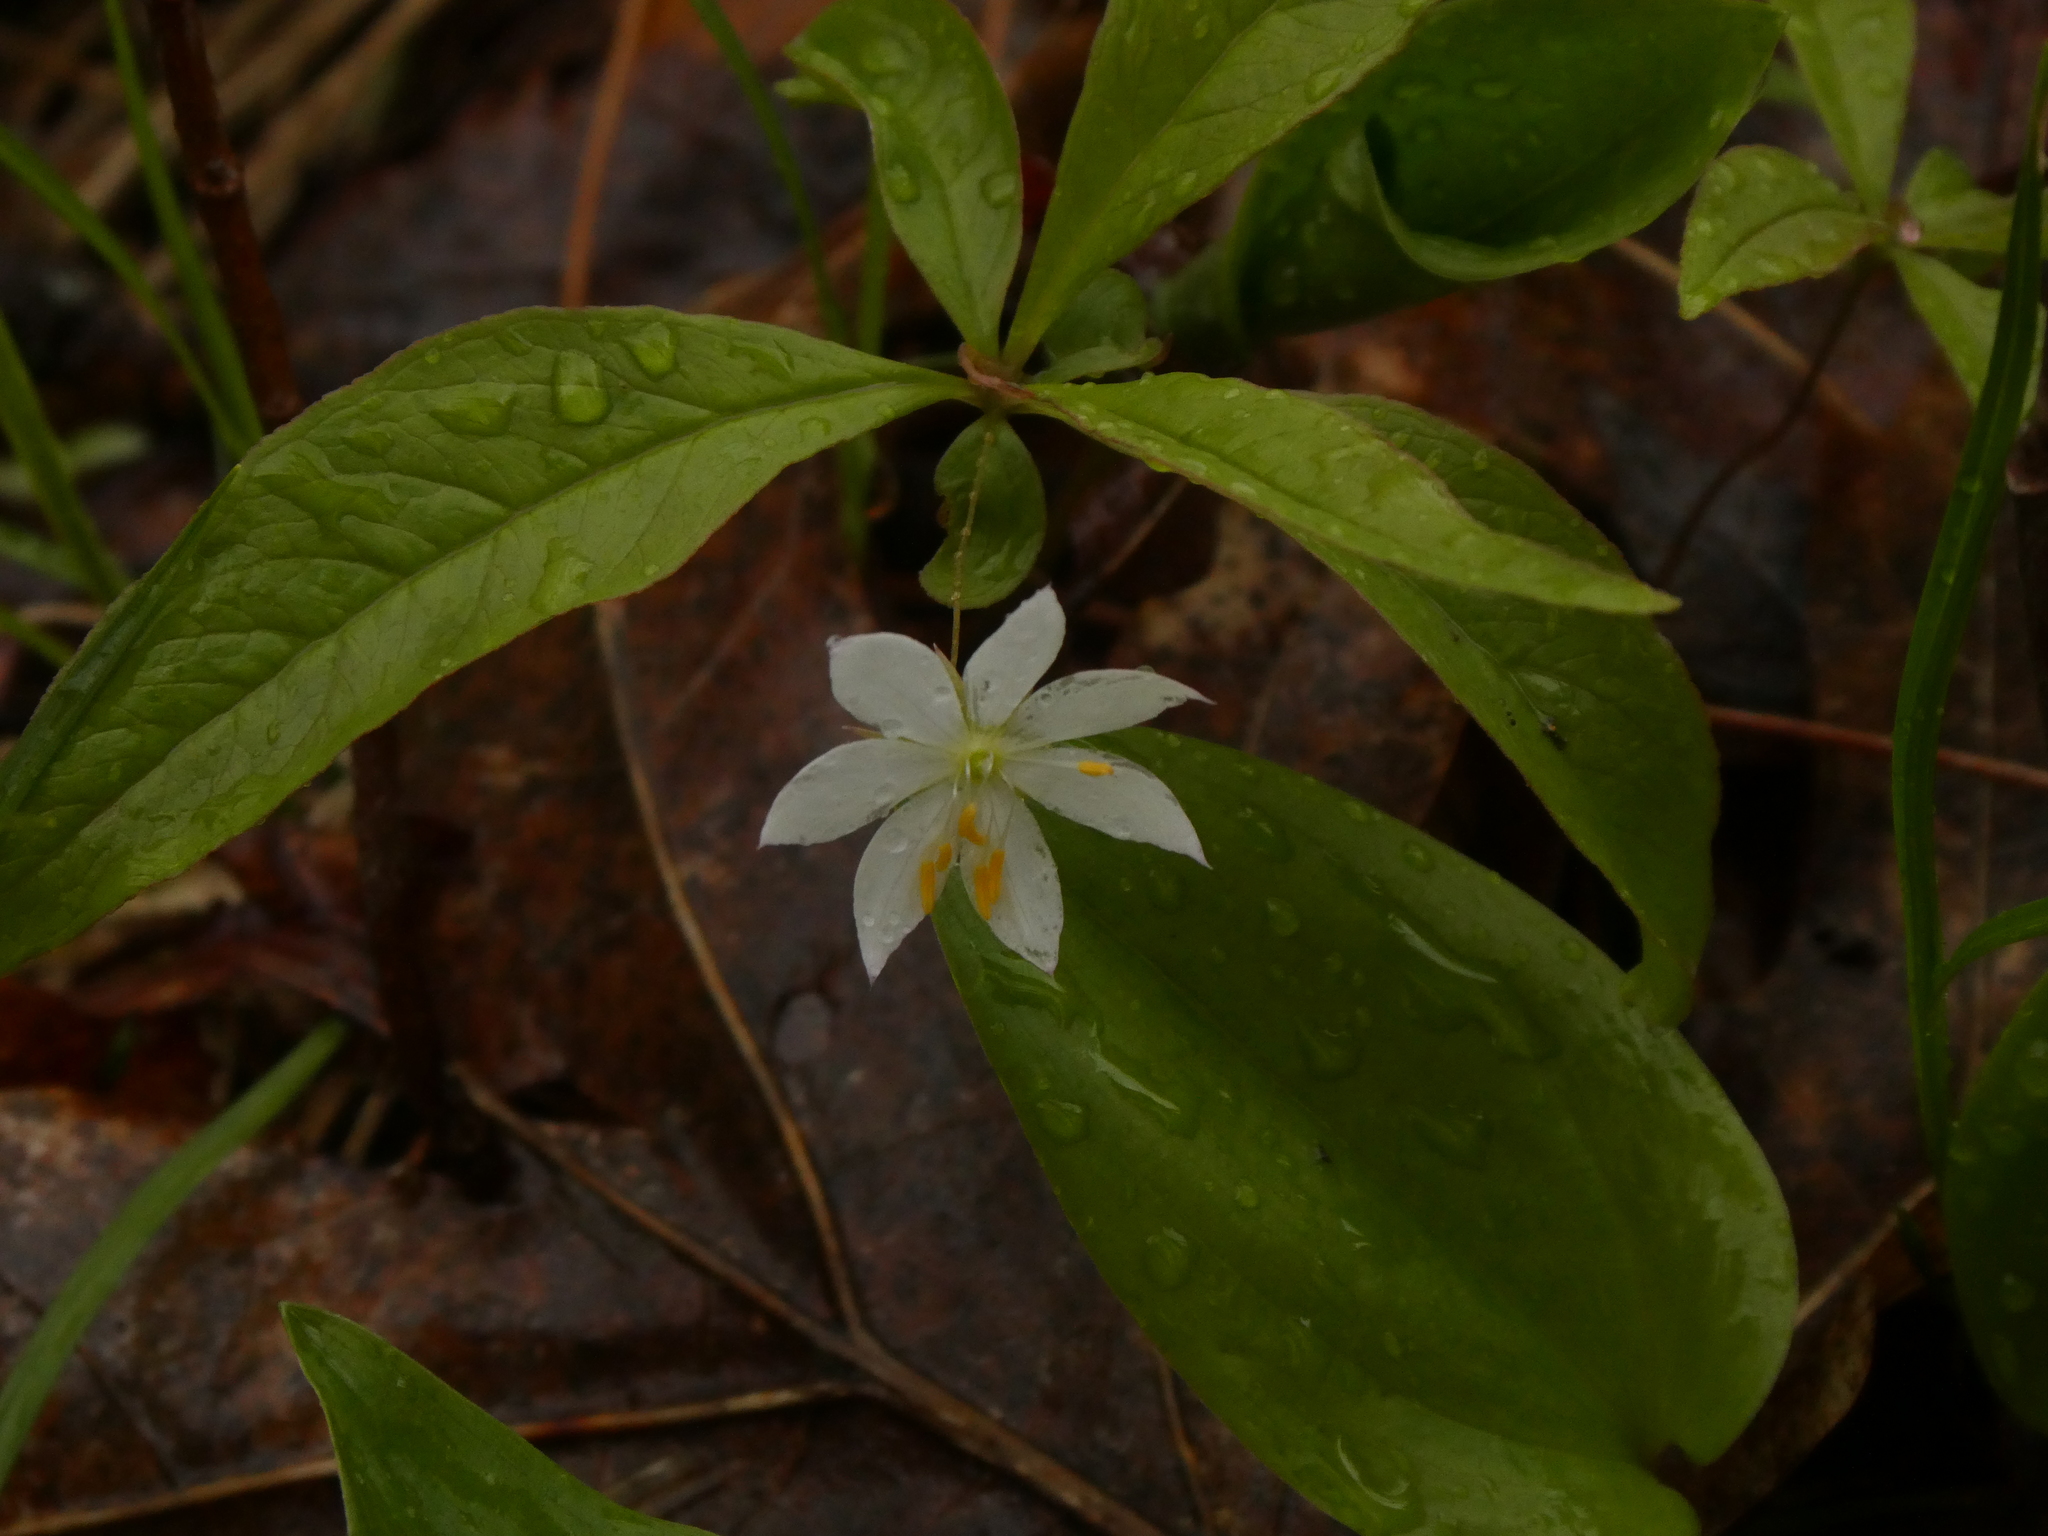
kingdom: Plantae
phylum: Tracheophyta
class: Magnoliopsida
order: Ericales
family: Primulaceae
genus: Lysimachia
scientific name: Lysimachia borealis
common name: American starflower
